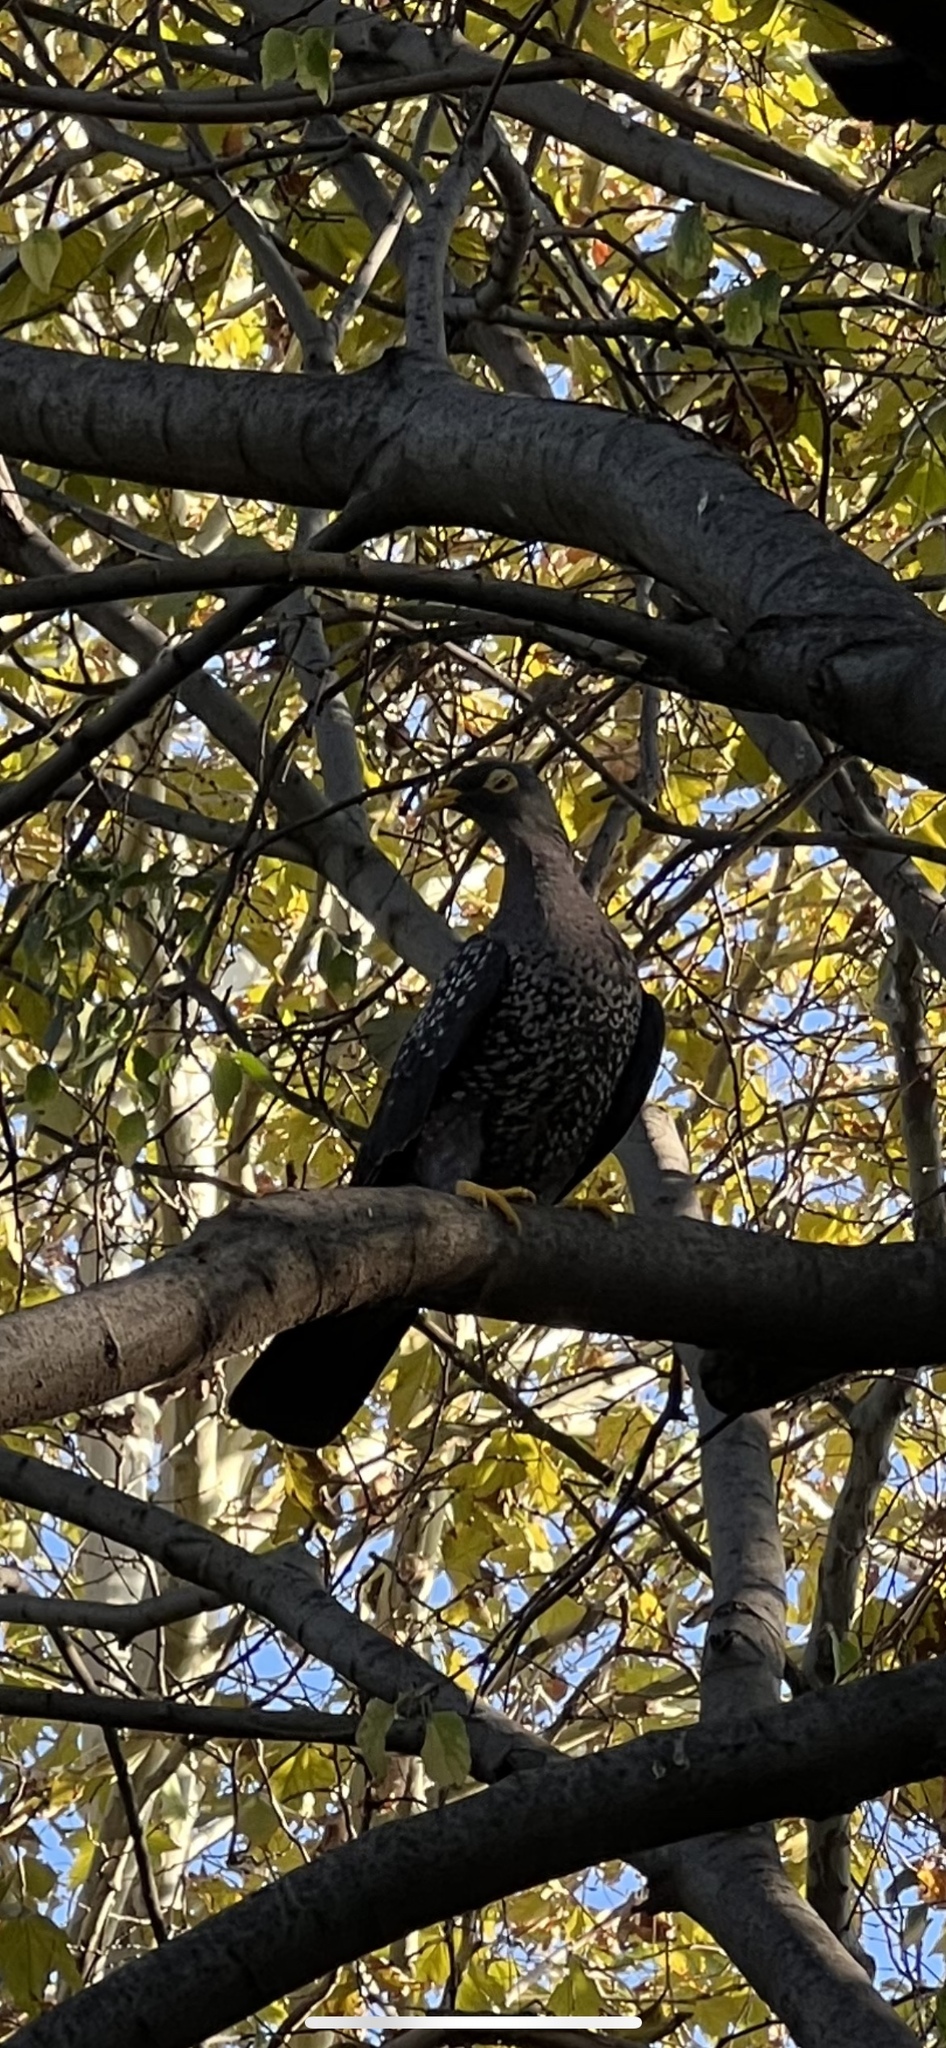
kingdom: Animalia
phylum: Chordata
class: Aves
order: Columbiformes
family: Columbidae
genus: Columba
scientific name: Columba arquatrix
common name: African olive pigeon
